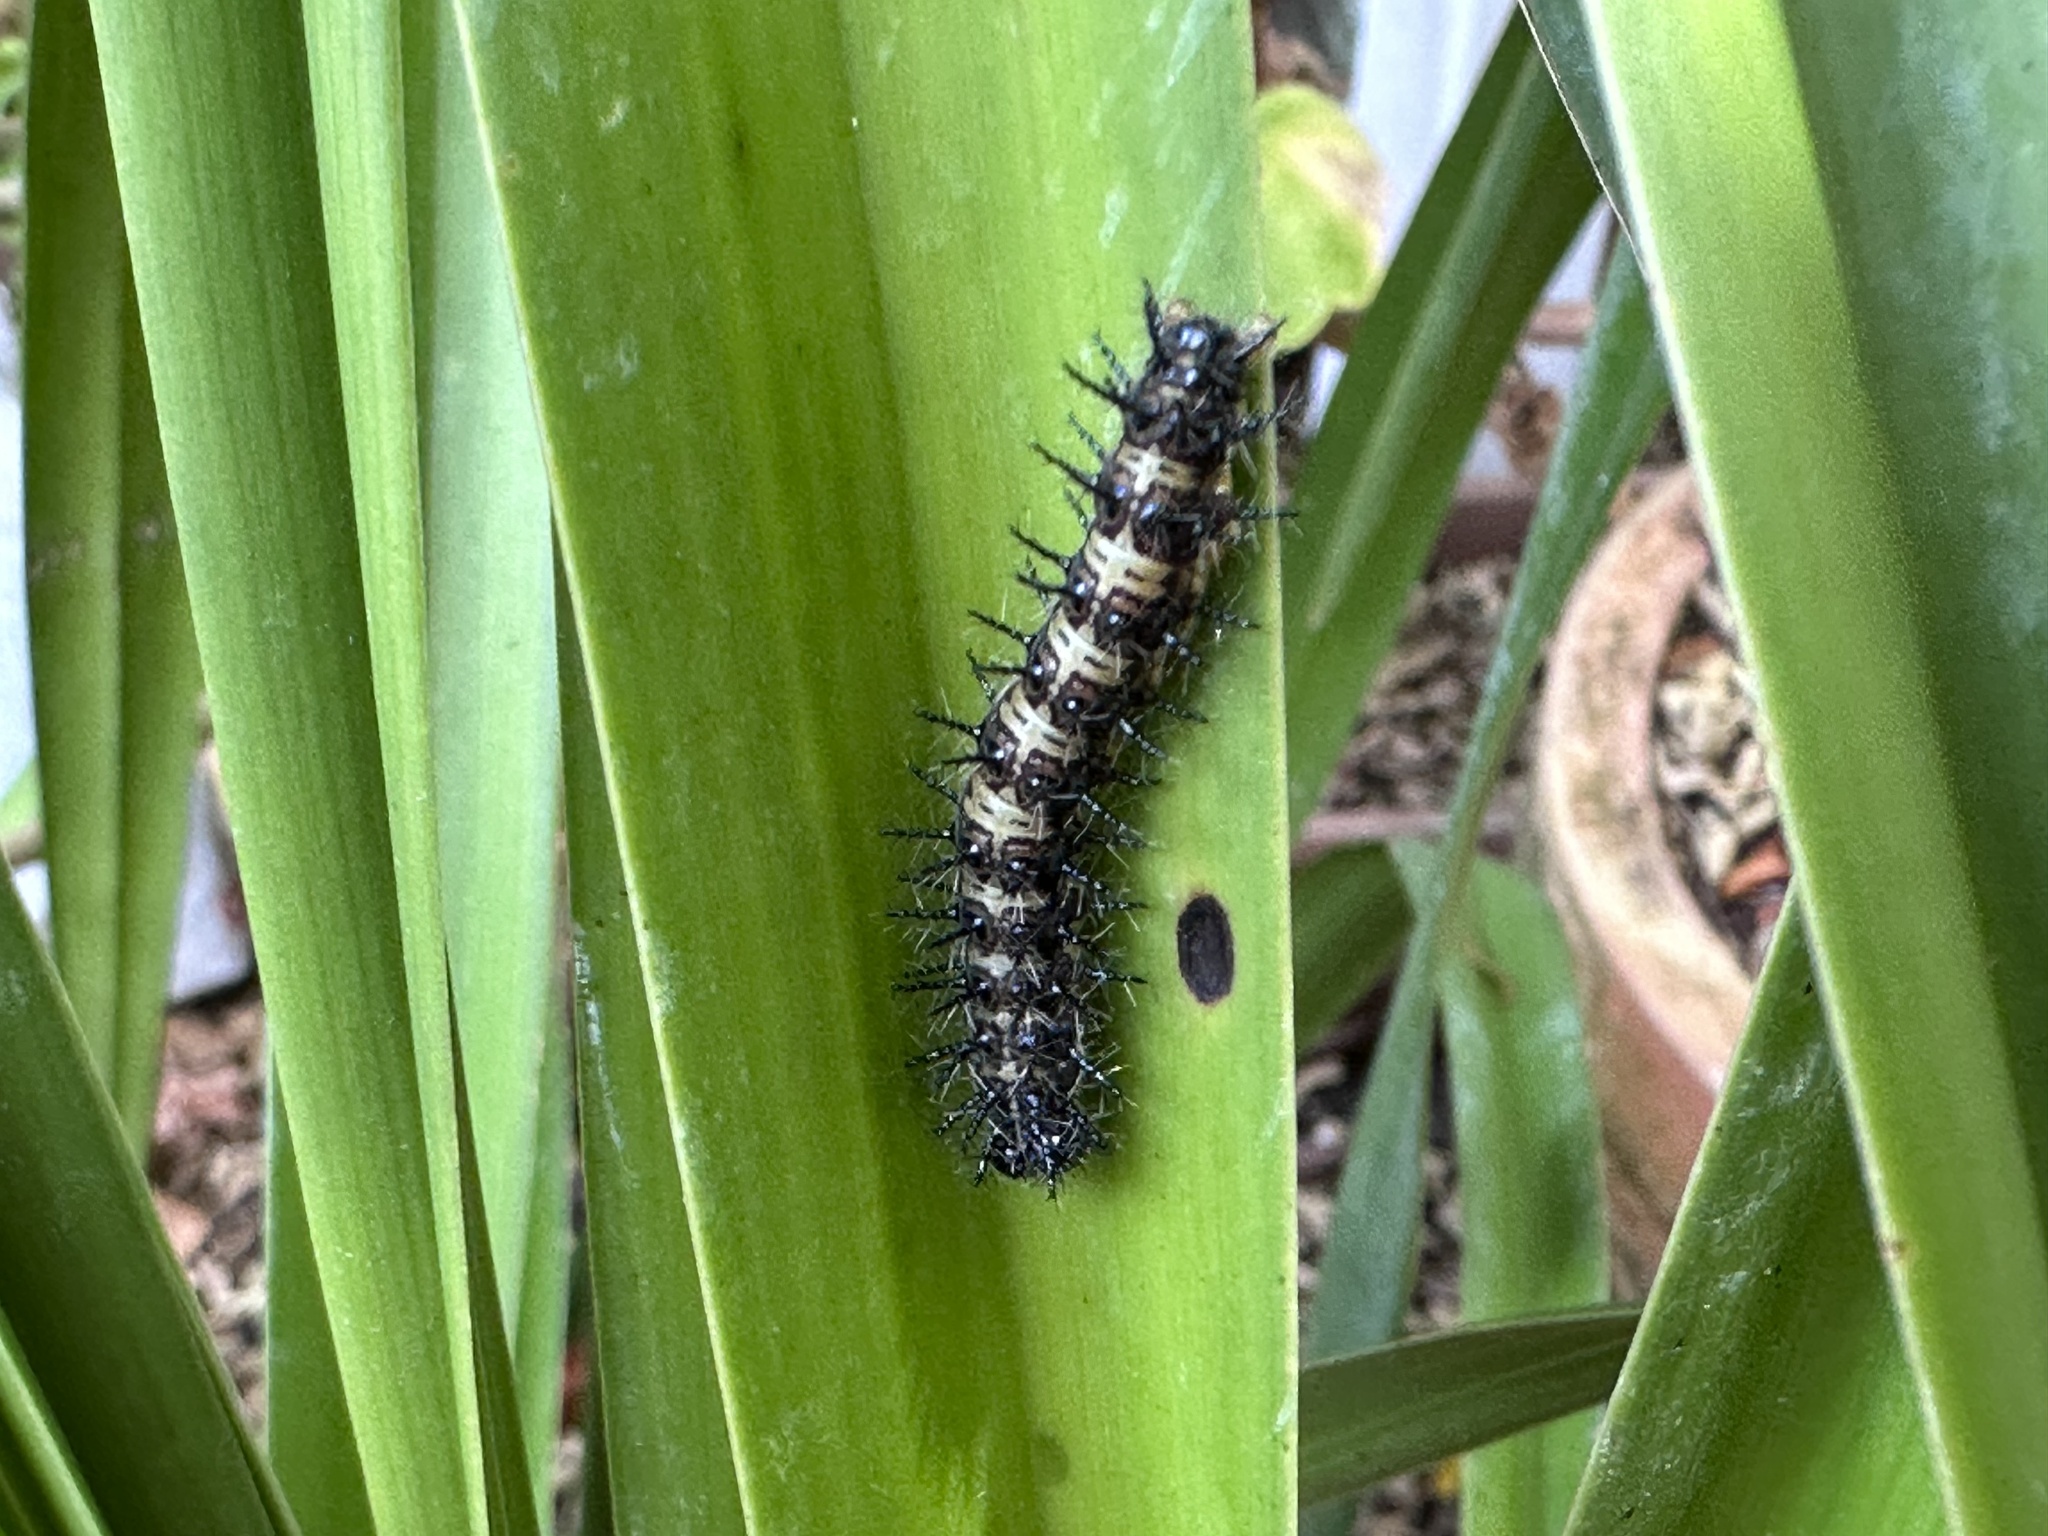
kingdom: Animalia
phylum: Arthropoda
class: Insecta
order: Lepidoptera
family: Nymphalidae
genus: Acraea
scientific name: Acraea horta
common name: Garden acraea
